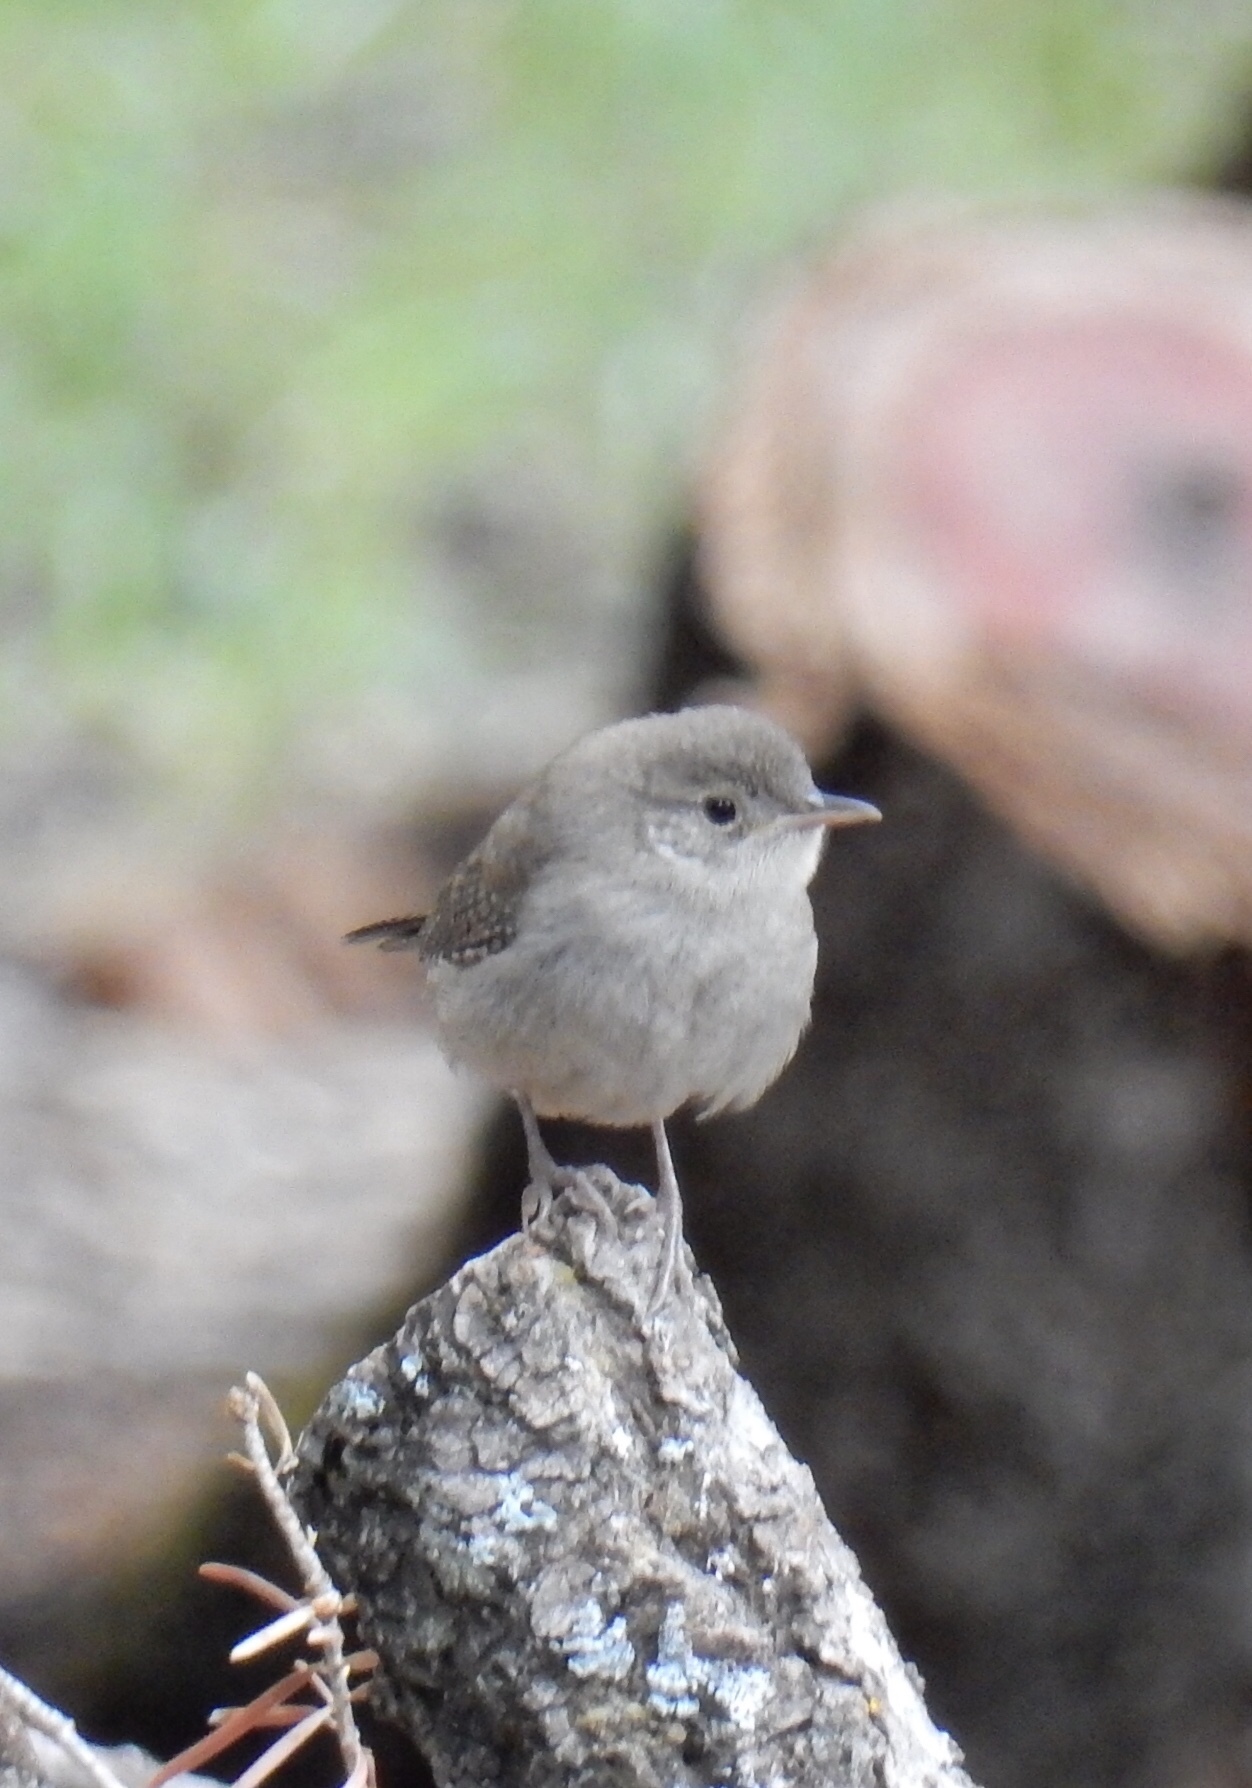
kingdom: Animalia
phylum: Chordata
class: Aves
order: Passeriformes
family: Troglodytidae
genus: Troglodytes
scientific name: Troglodytes aedon
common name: House wren
